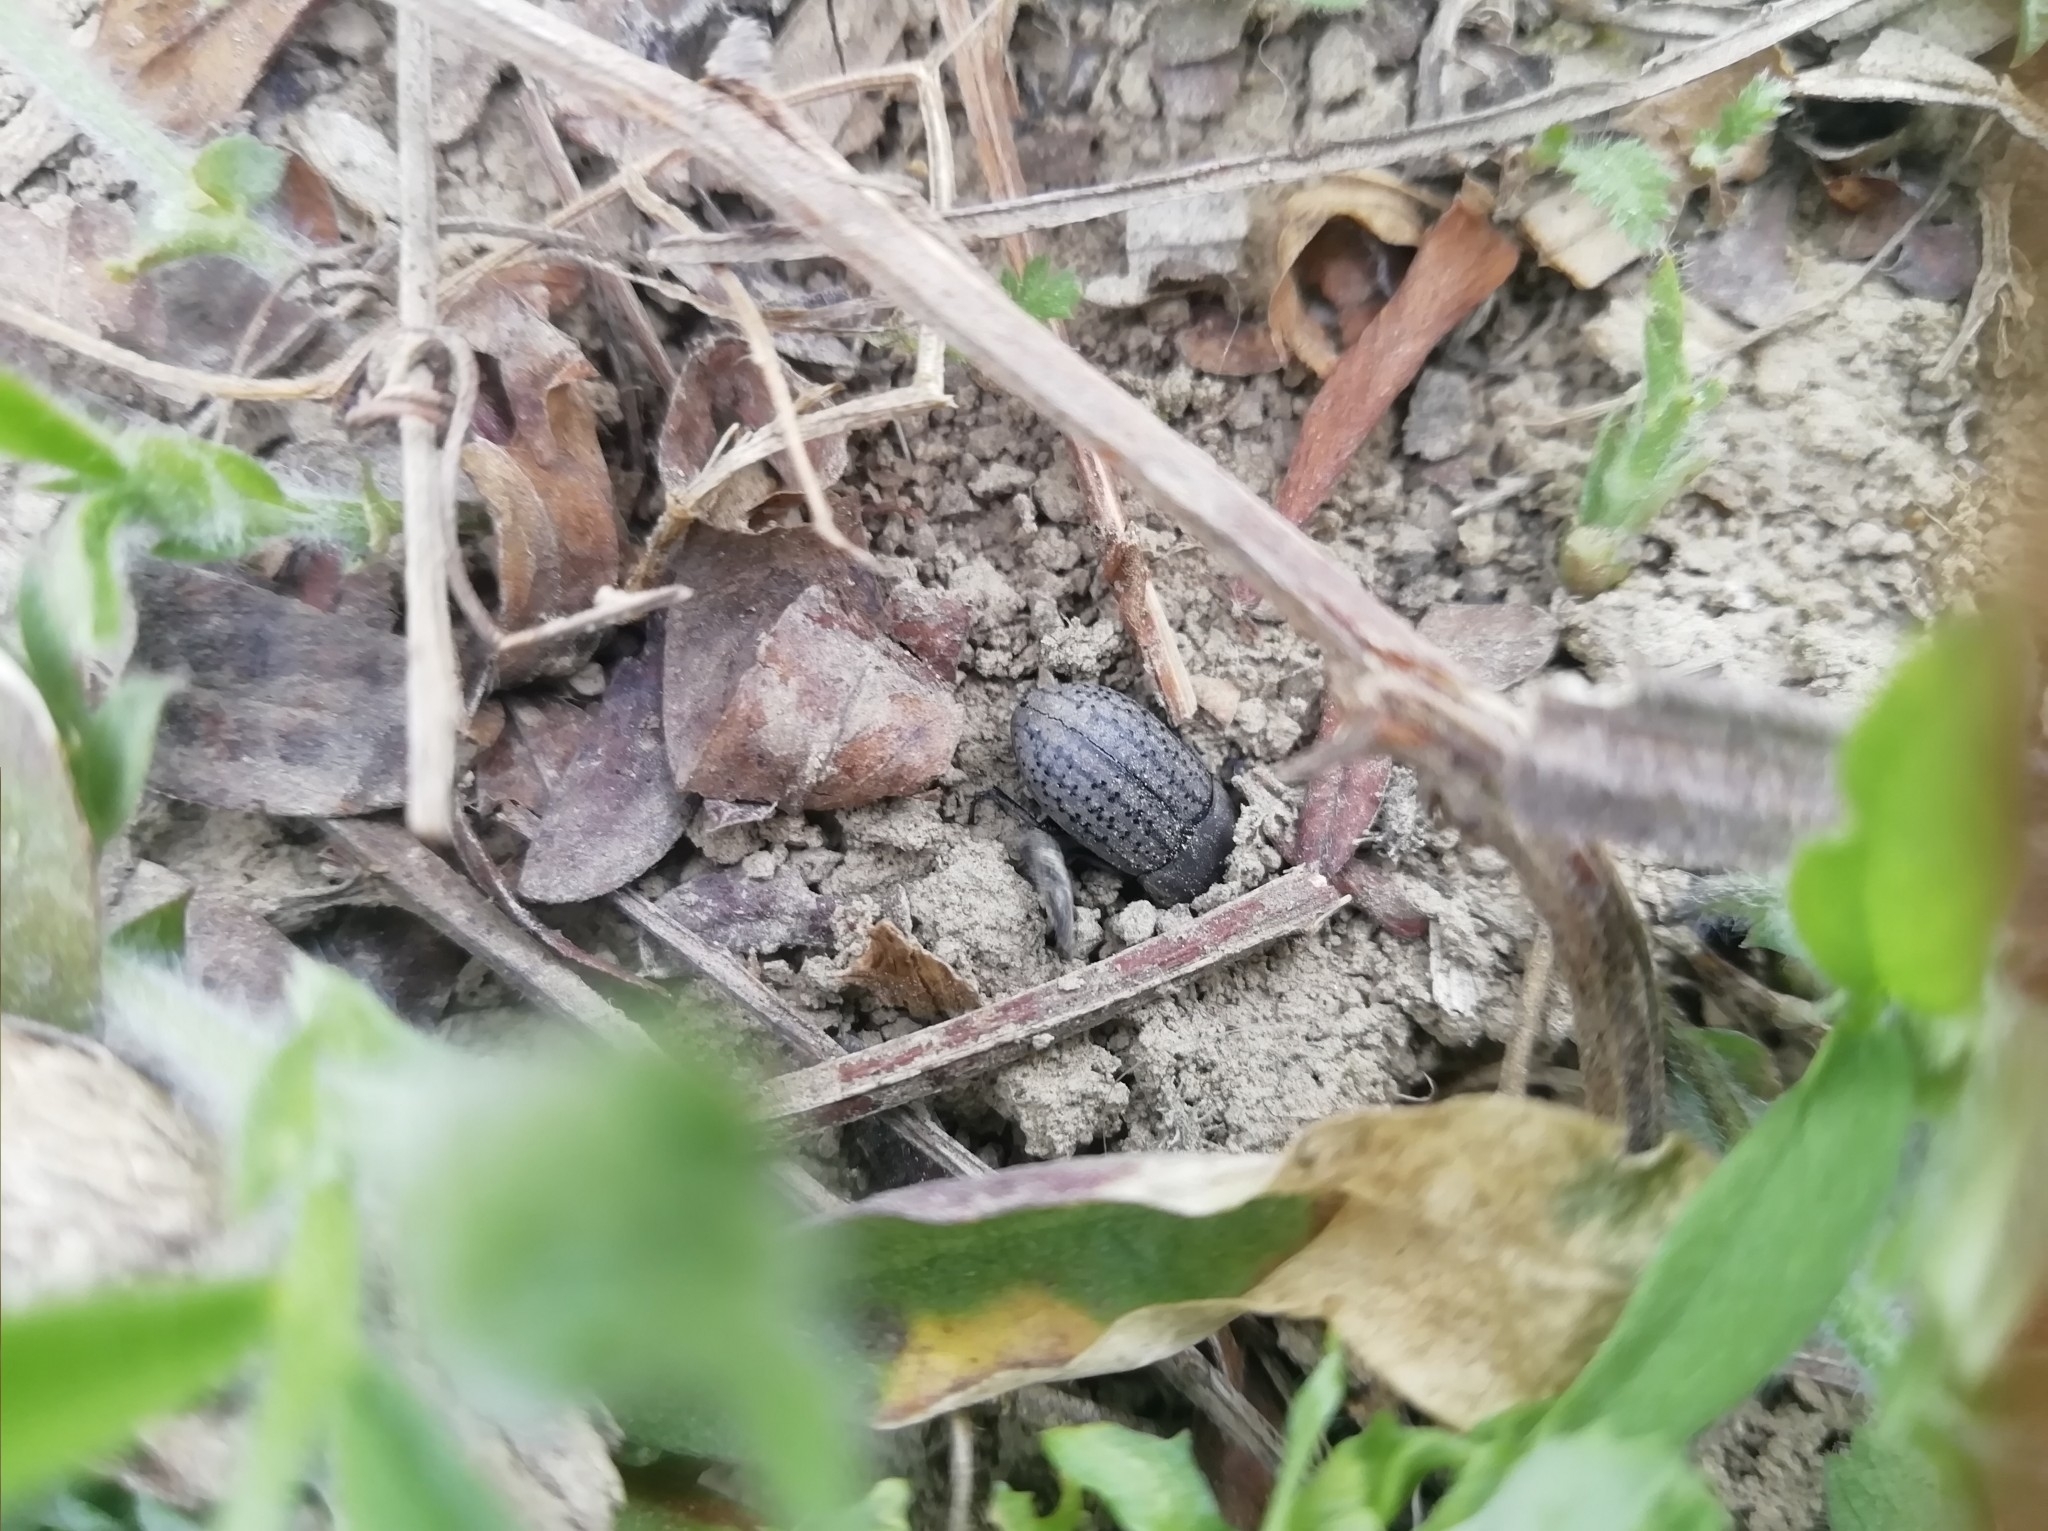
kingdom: Animalia
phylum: Arthropoda
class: Insecta
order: Coleoptera
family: Tenebrionidae
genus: Opatrum
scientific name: Opatrum sabulosum
